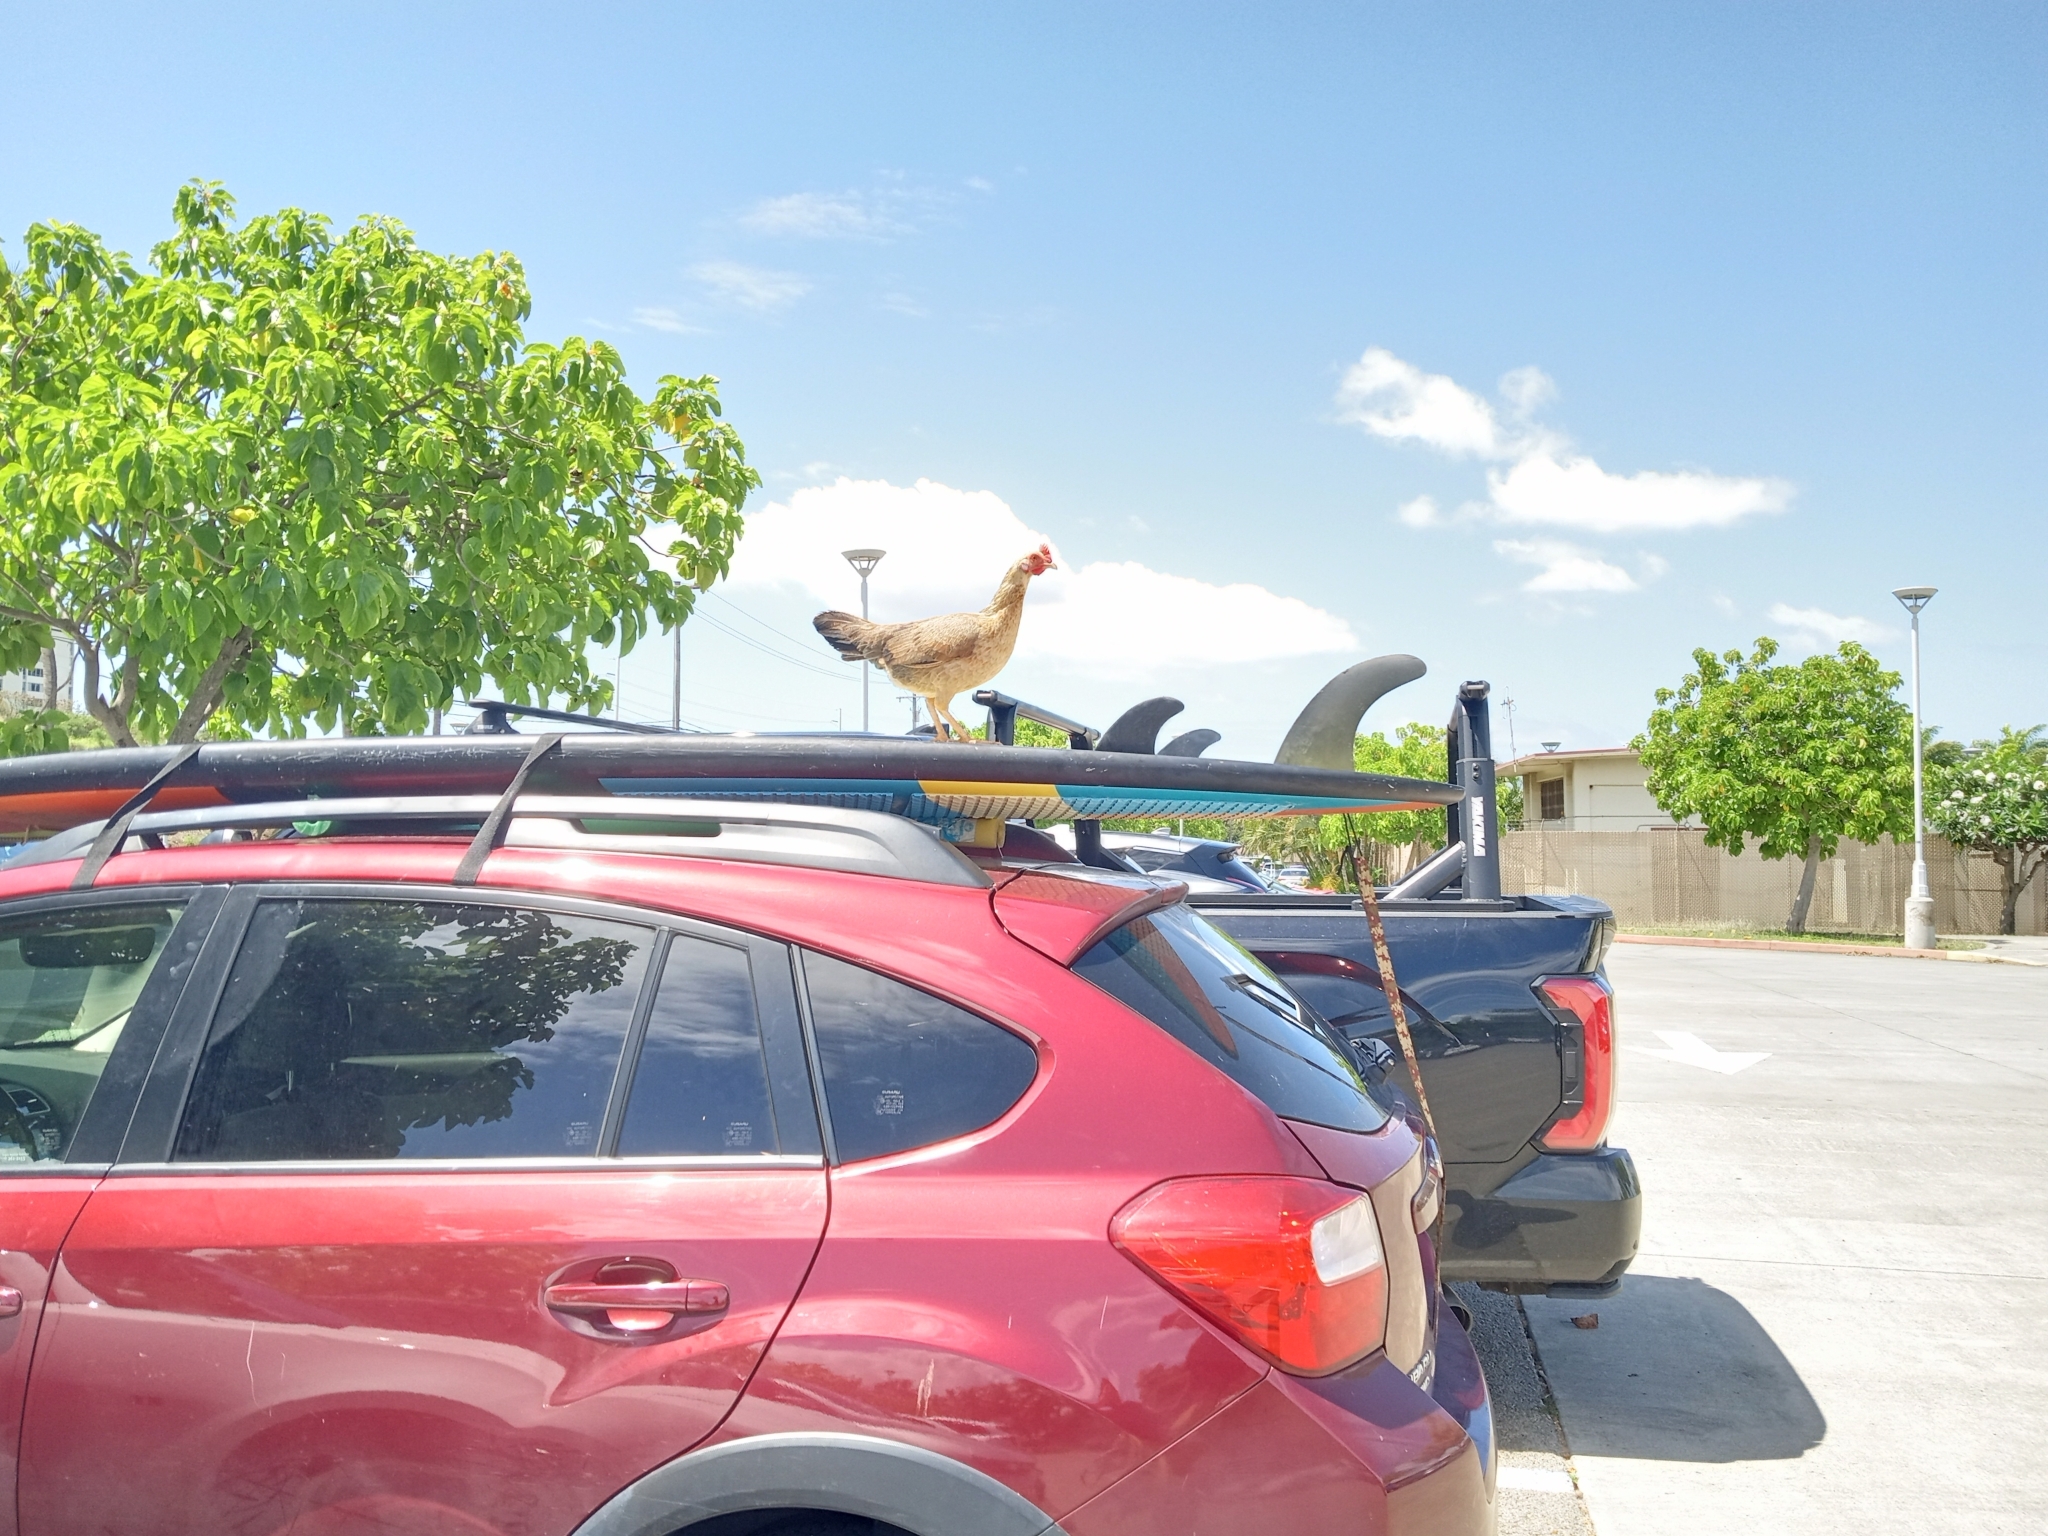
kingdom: Animalia
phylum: Chordata
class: Aves
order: Galliformes
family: Phasianidae
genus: Gallus
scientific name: Gallus gallus
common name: Red junglefowl
